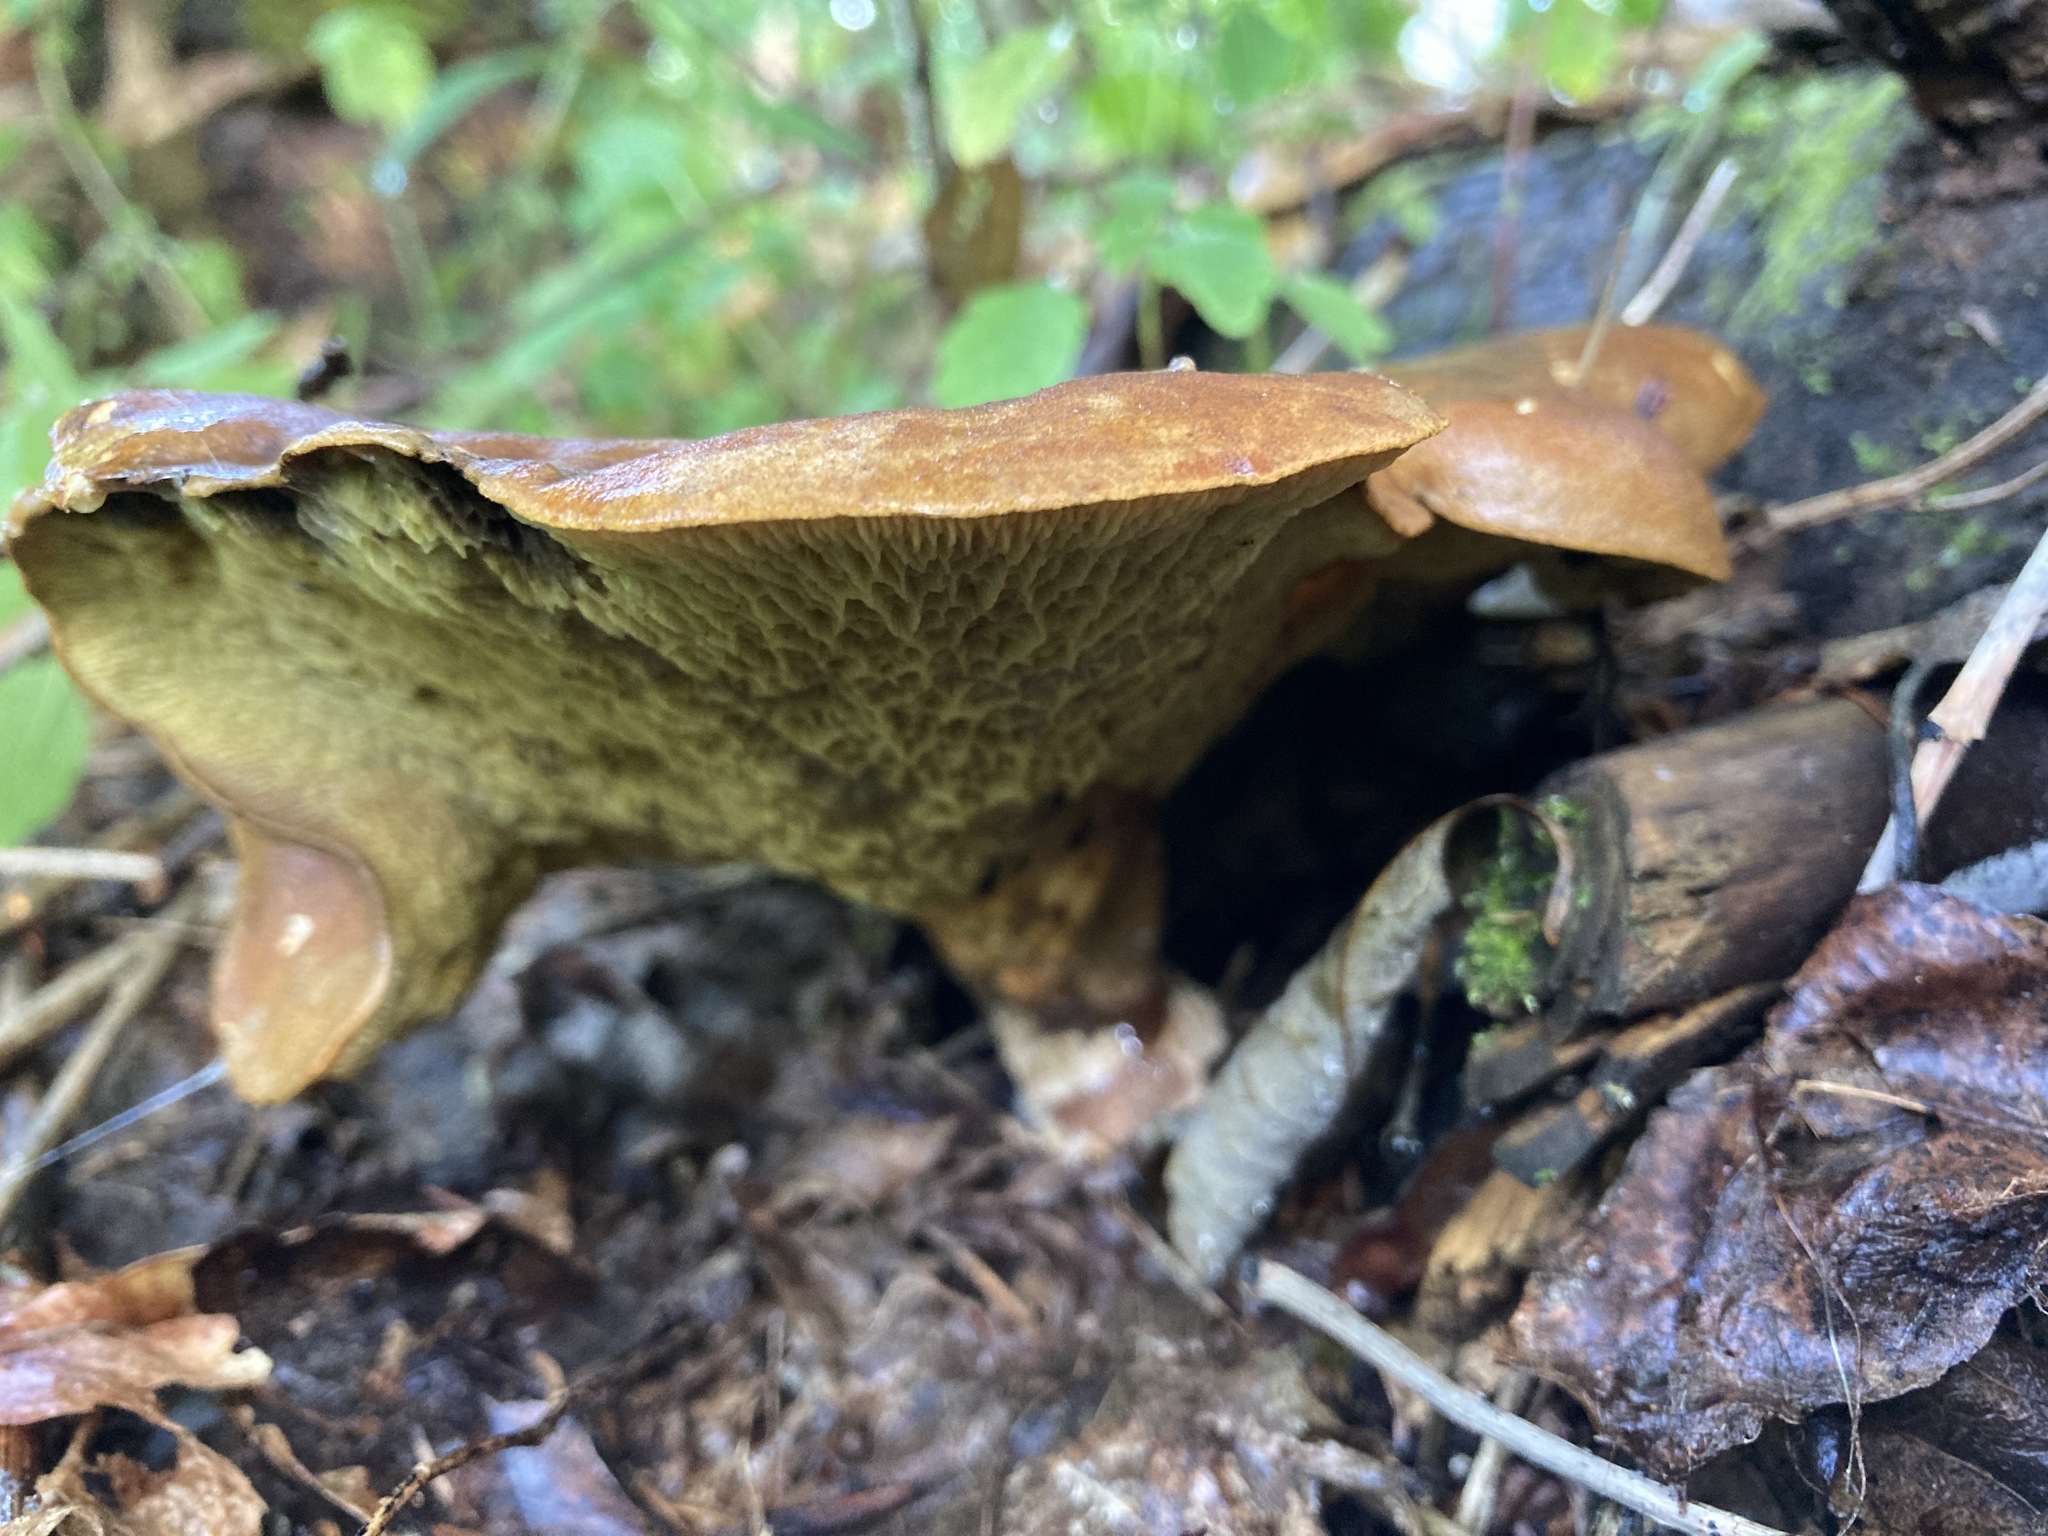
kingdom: Fungi
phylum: Basidiomycota
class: Agaricomycetes
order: Boletales
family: Boletinellaceae
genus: Boletinellus
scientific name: Boletinellus merulioides
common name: Ash tree bolete
